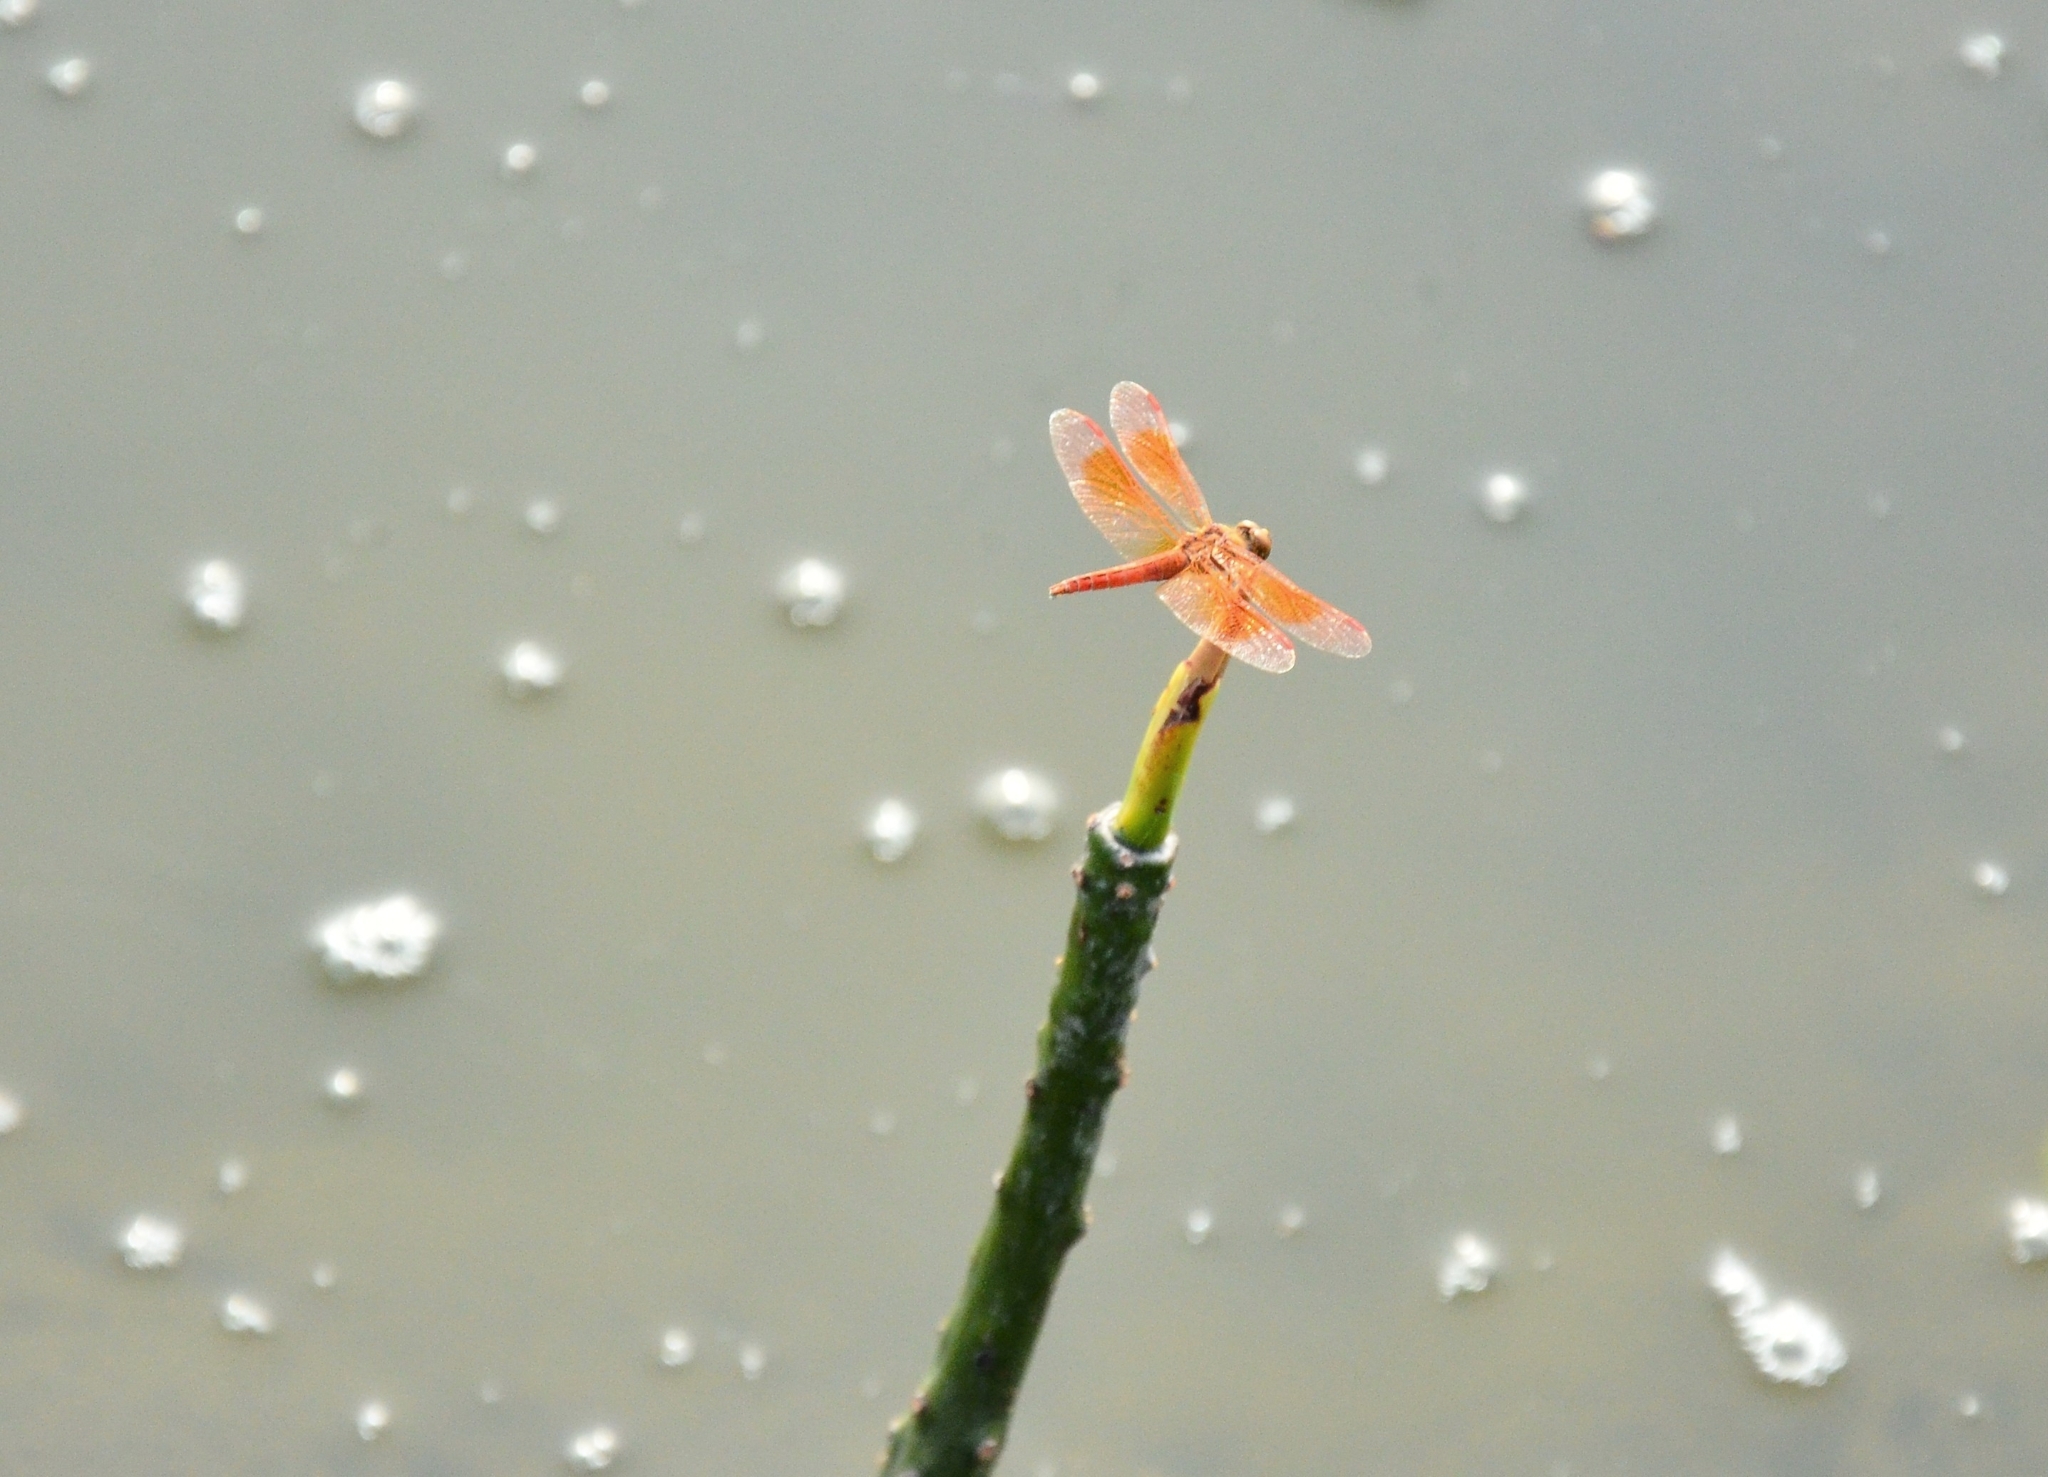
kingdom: Animalia
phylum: Arthropoda
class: Insecta
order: Odonata
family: Libellulidae
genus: Brachythemis
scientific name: Brachythemis contaminata
